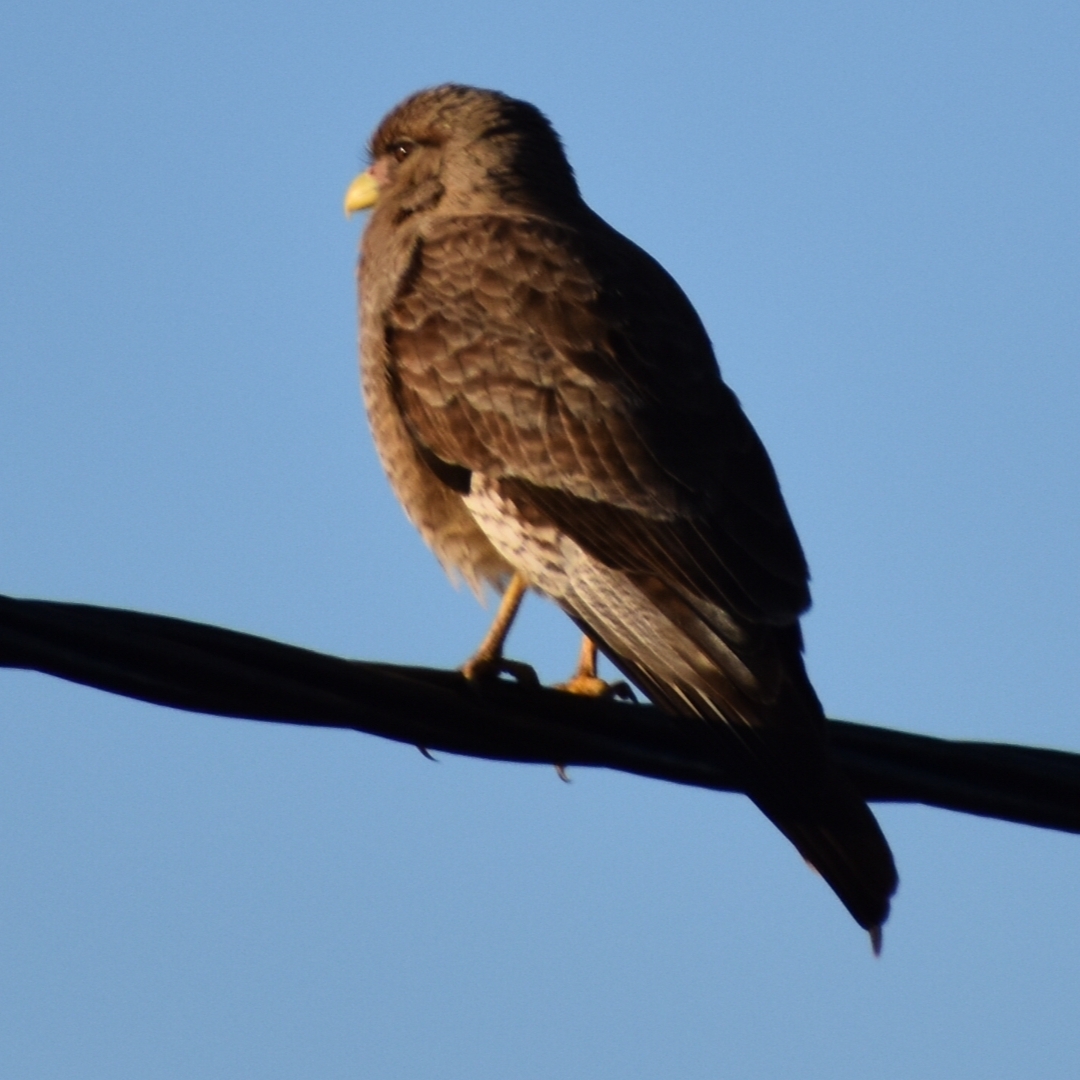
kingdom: Animalia
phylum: Chordata
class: Aves
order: Falconiformes
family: Falconidae
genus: Daptrius
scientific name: Daptrius
